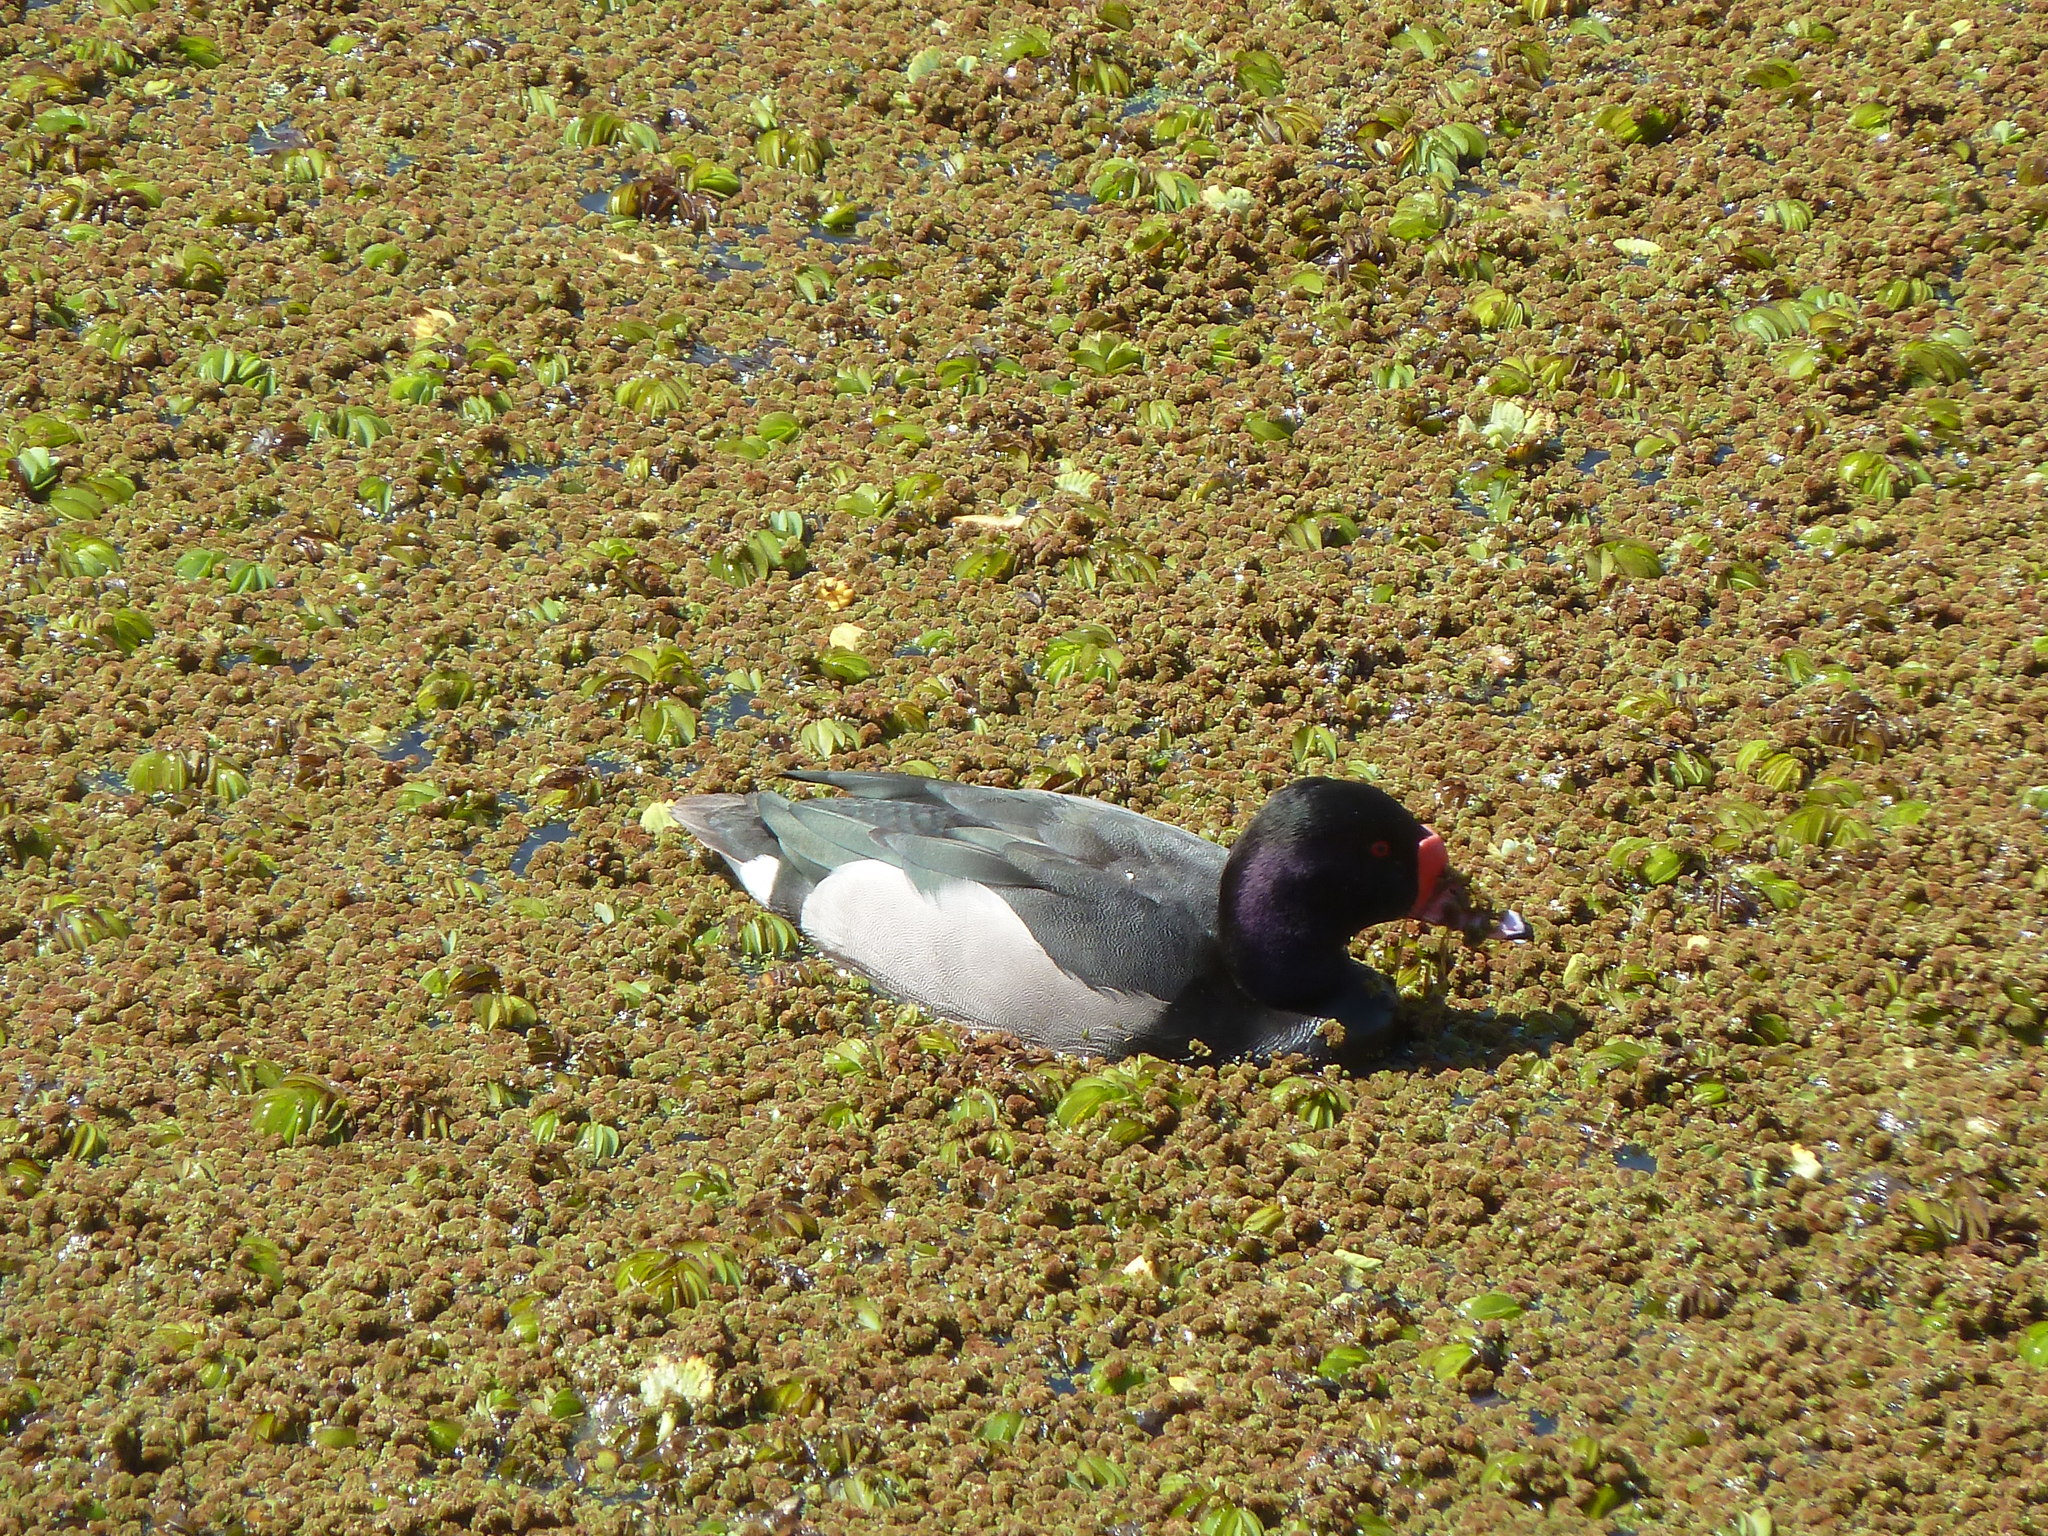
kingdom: Animalia
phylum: Chordata
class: Aves
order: Anseriformes
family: Anatidae
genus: Netta
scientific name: Netta peposaca
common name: Rosy-billed pochard
